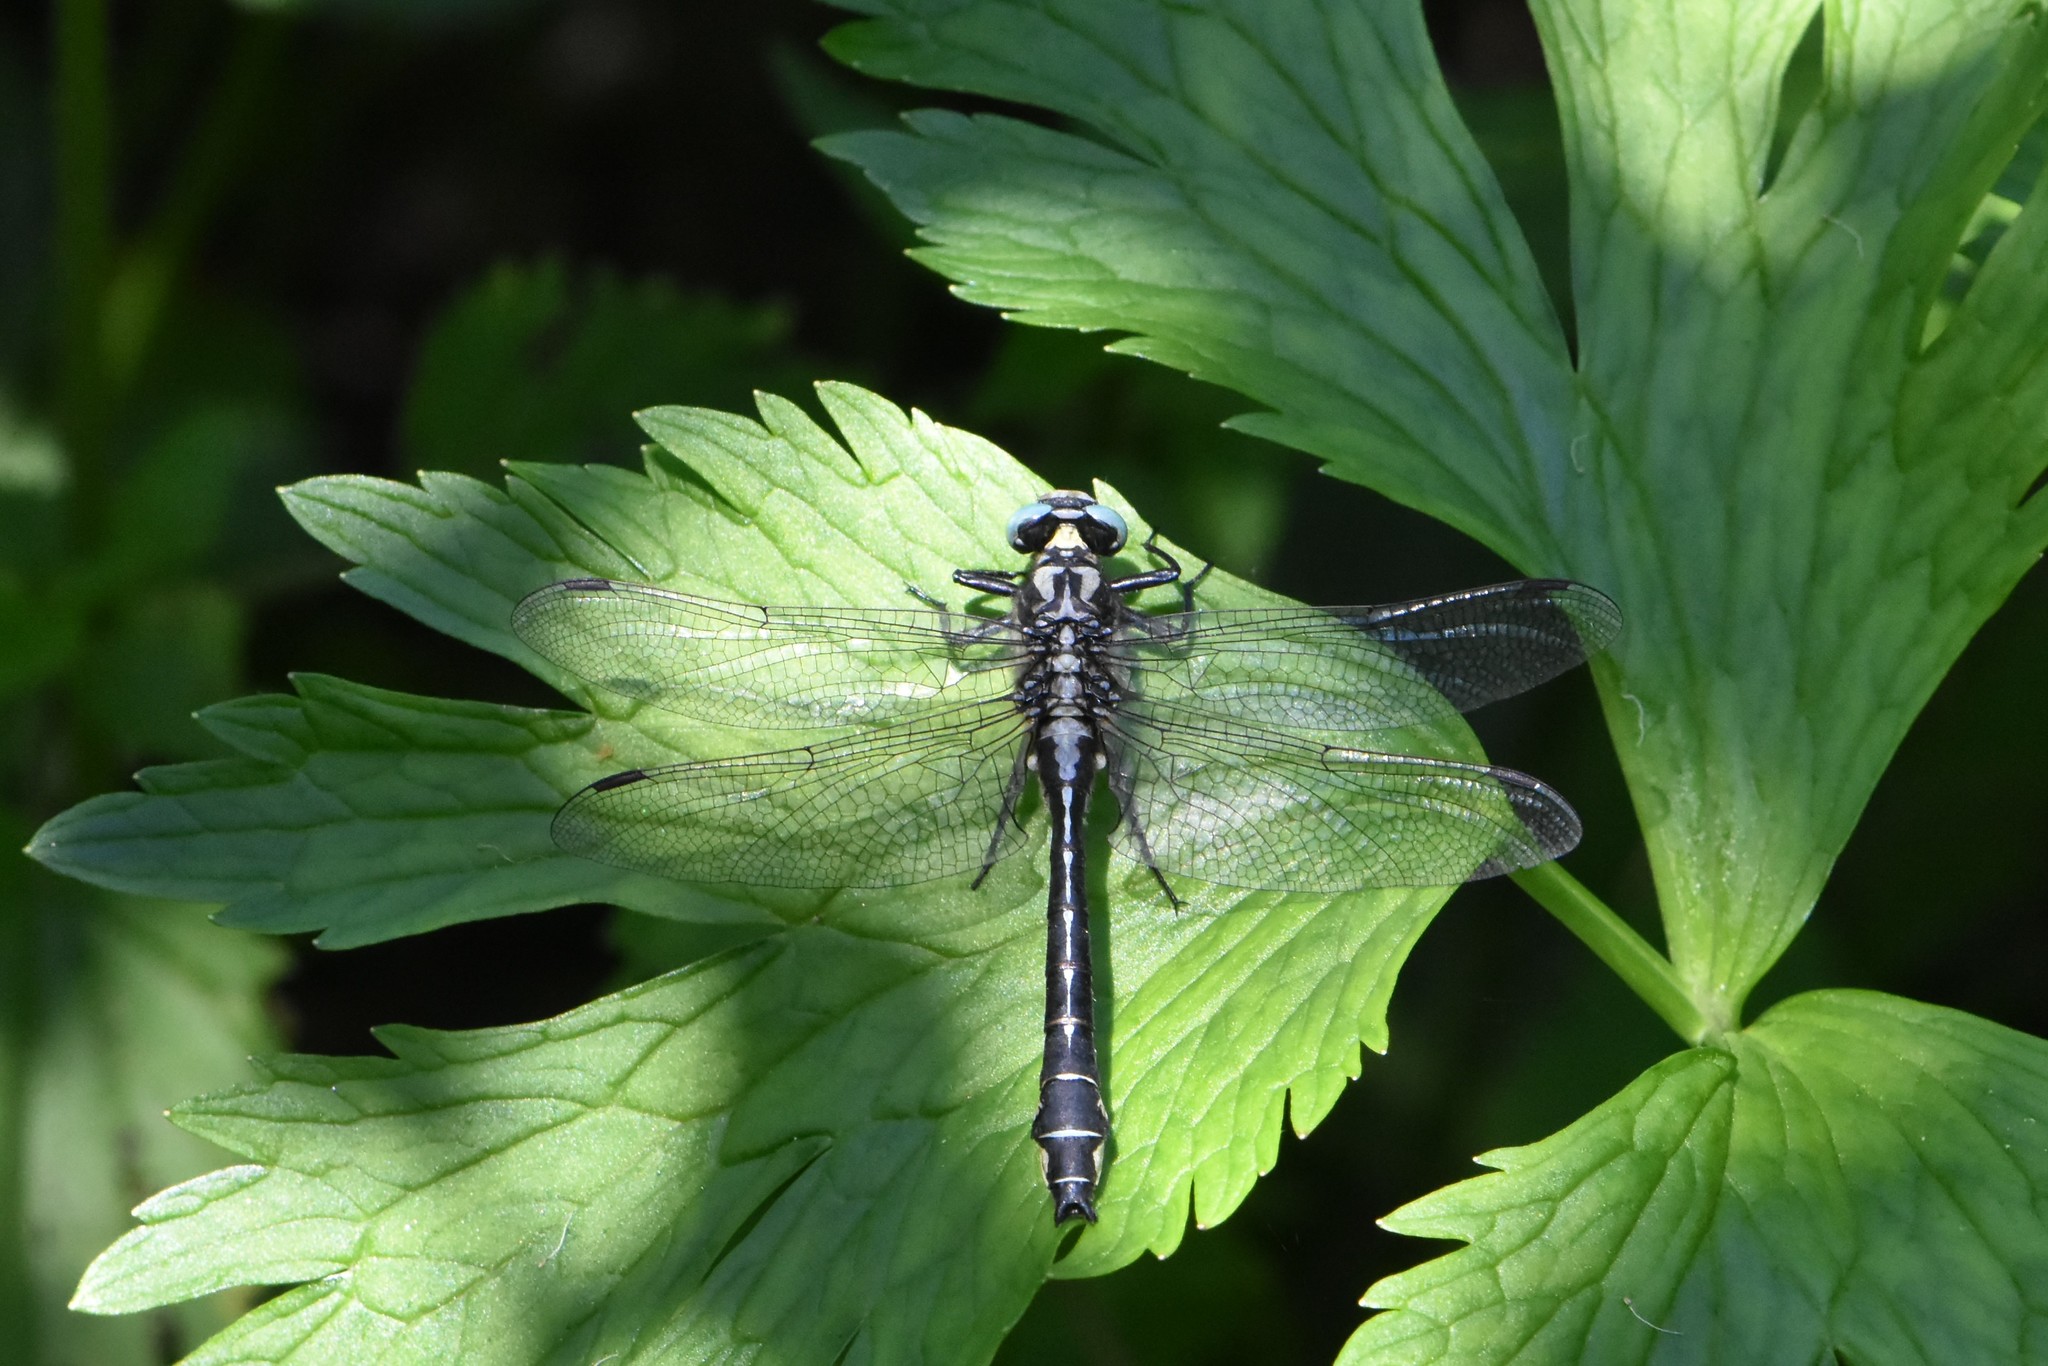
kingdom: Animalia
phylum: Arthropoda
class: Insecta
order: Odonata
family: Gomphidae
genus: Gomphus
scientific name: Gomphus vulgatissimus
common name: Club-tailed dragonfly
